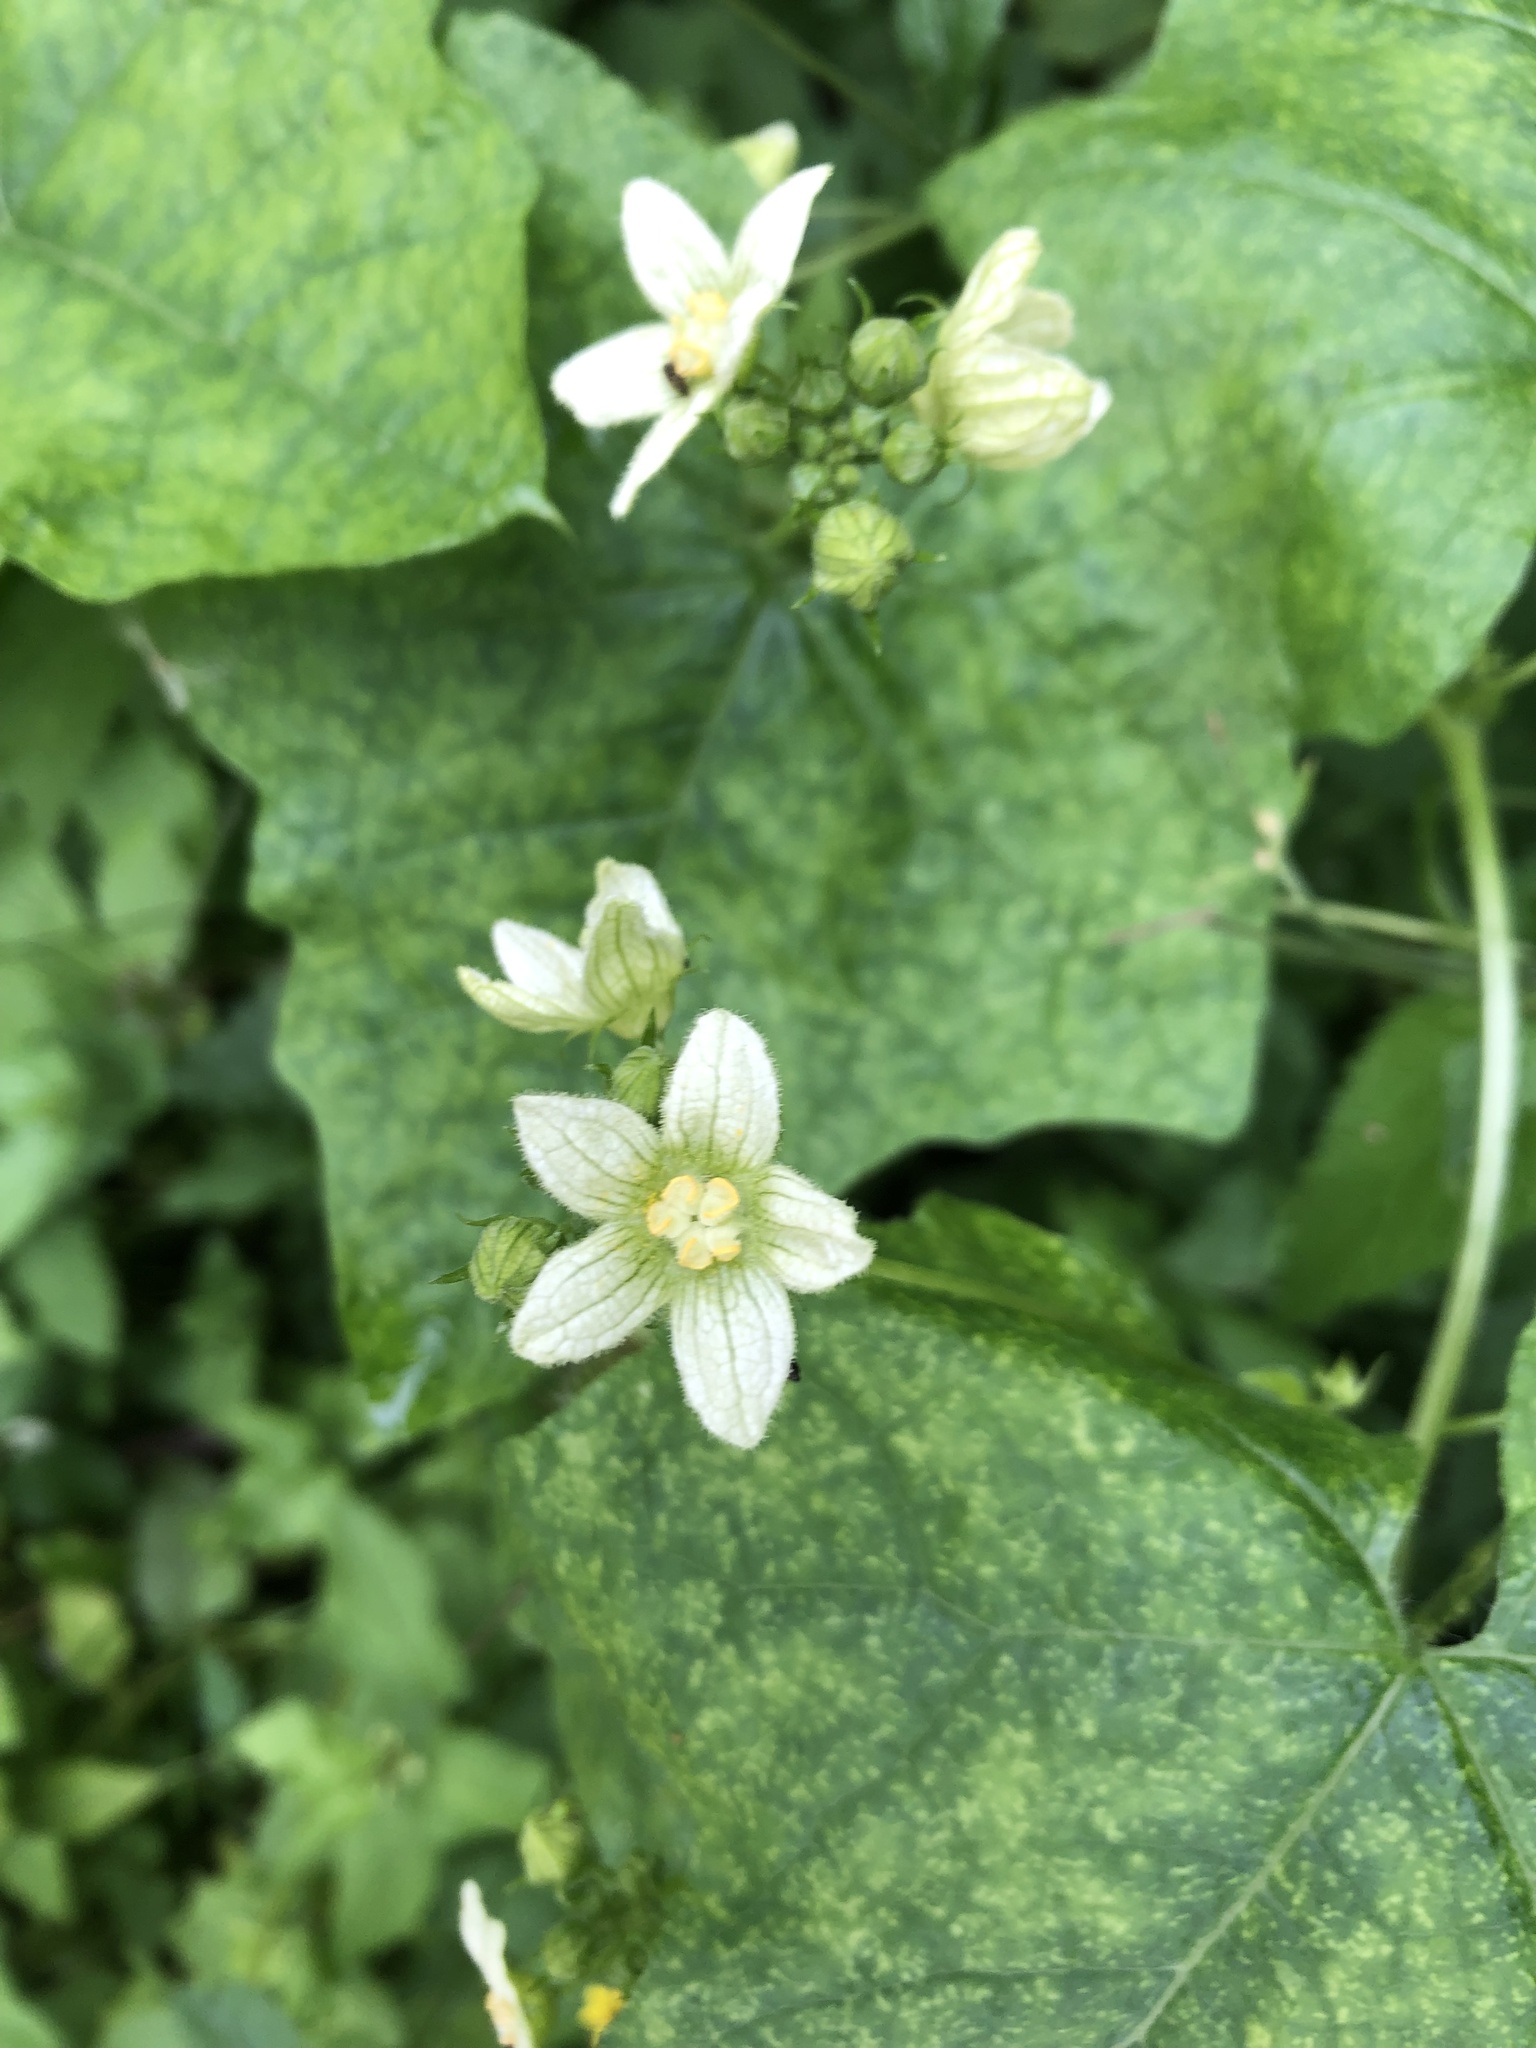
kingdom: Plantae
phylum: Tracheophyta
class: Magnoliopsida
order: Cucurbitales
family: Cucurbitaceae
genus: Bryonia
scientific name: Bryonia dioica
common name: White bryony
